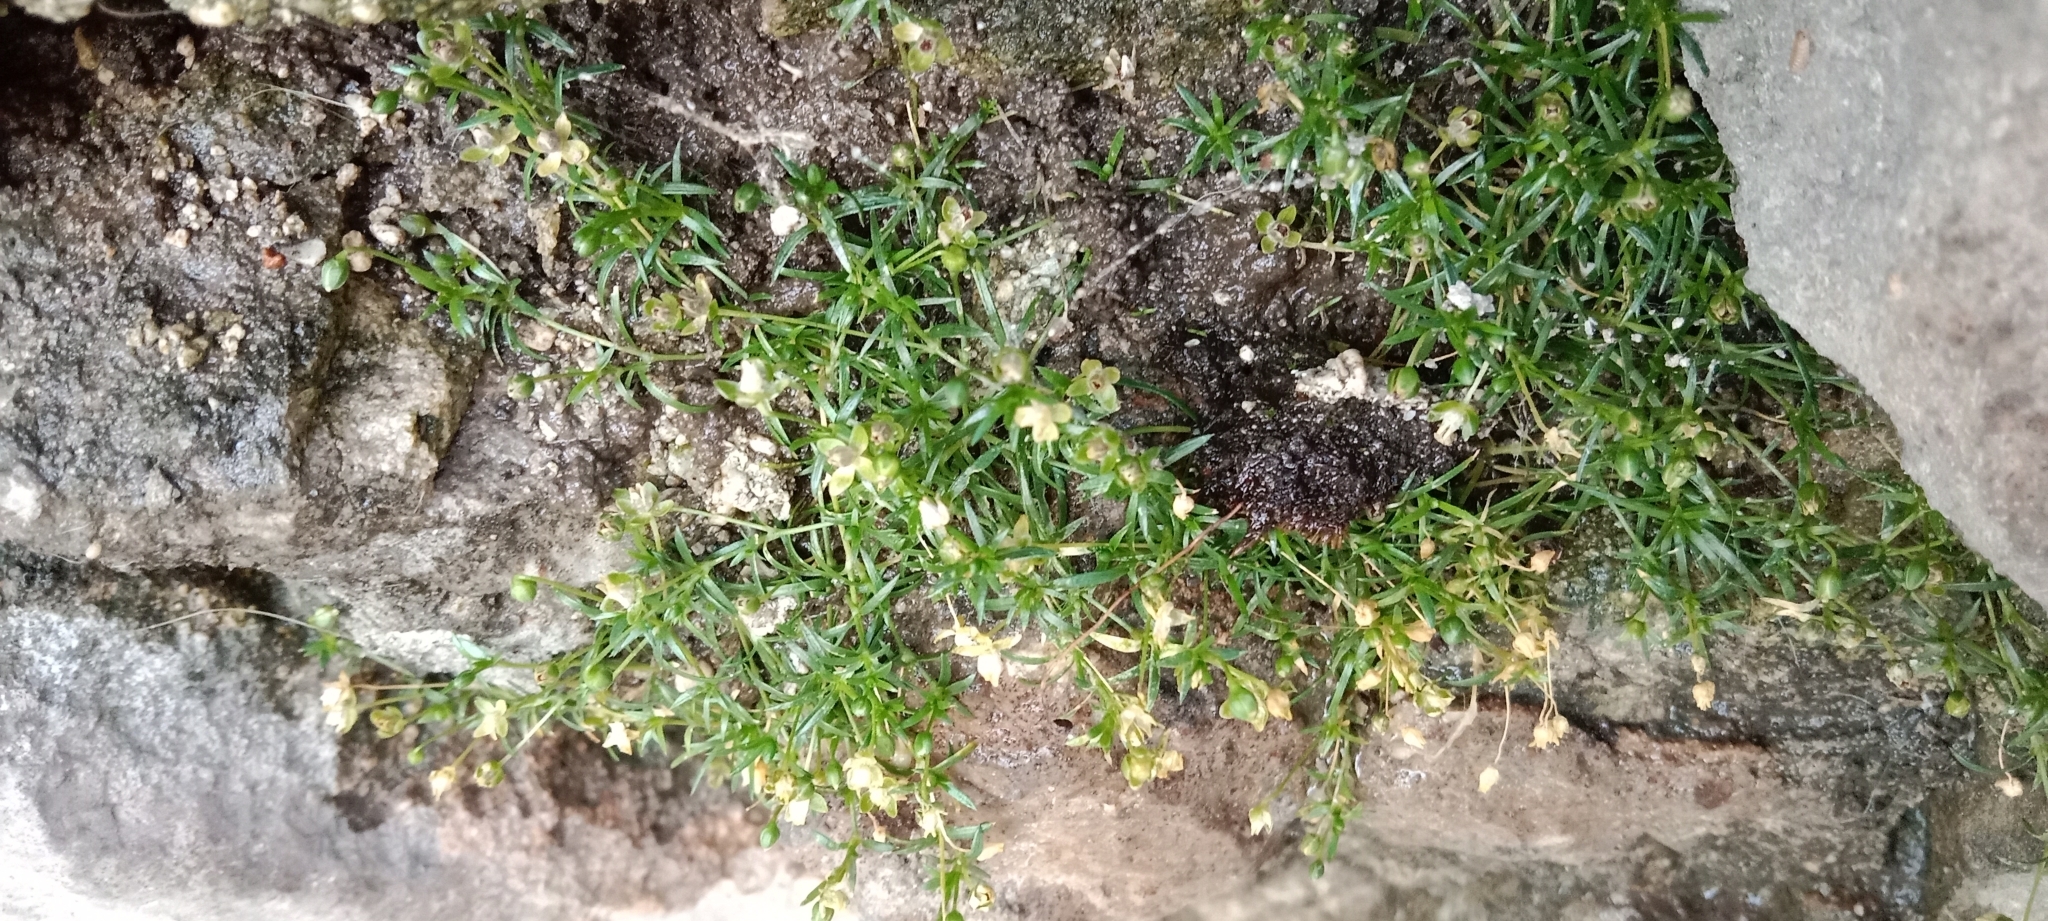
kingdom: Plantae
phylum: Tracheophyta
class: Magnoliopsida
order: Caryophyllales
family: Caryophyllaceae
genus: Sagina
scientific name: Sagina procumbens
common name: Procumbent pearlwort
